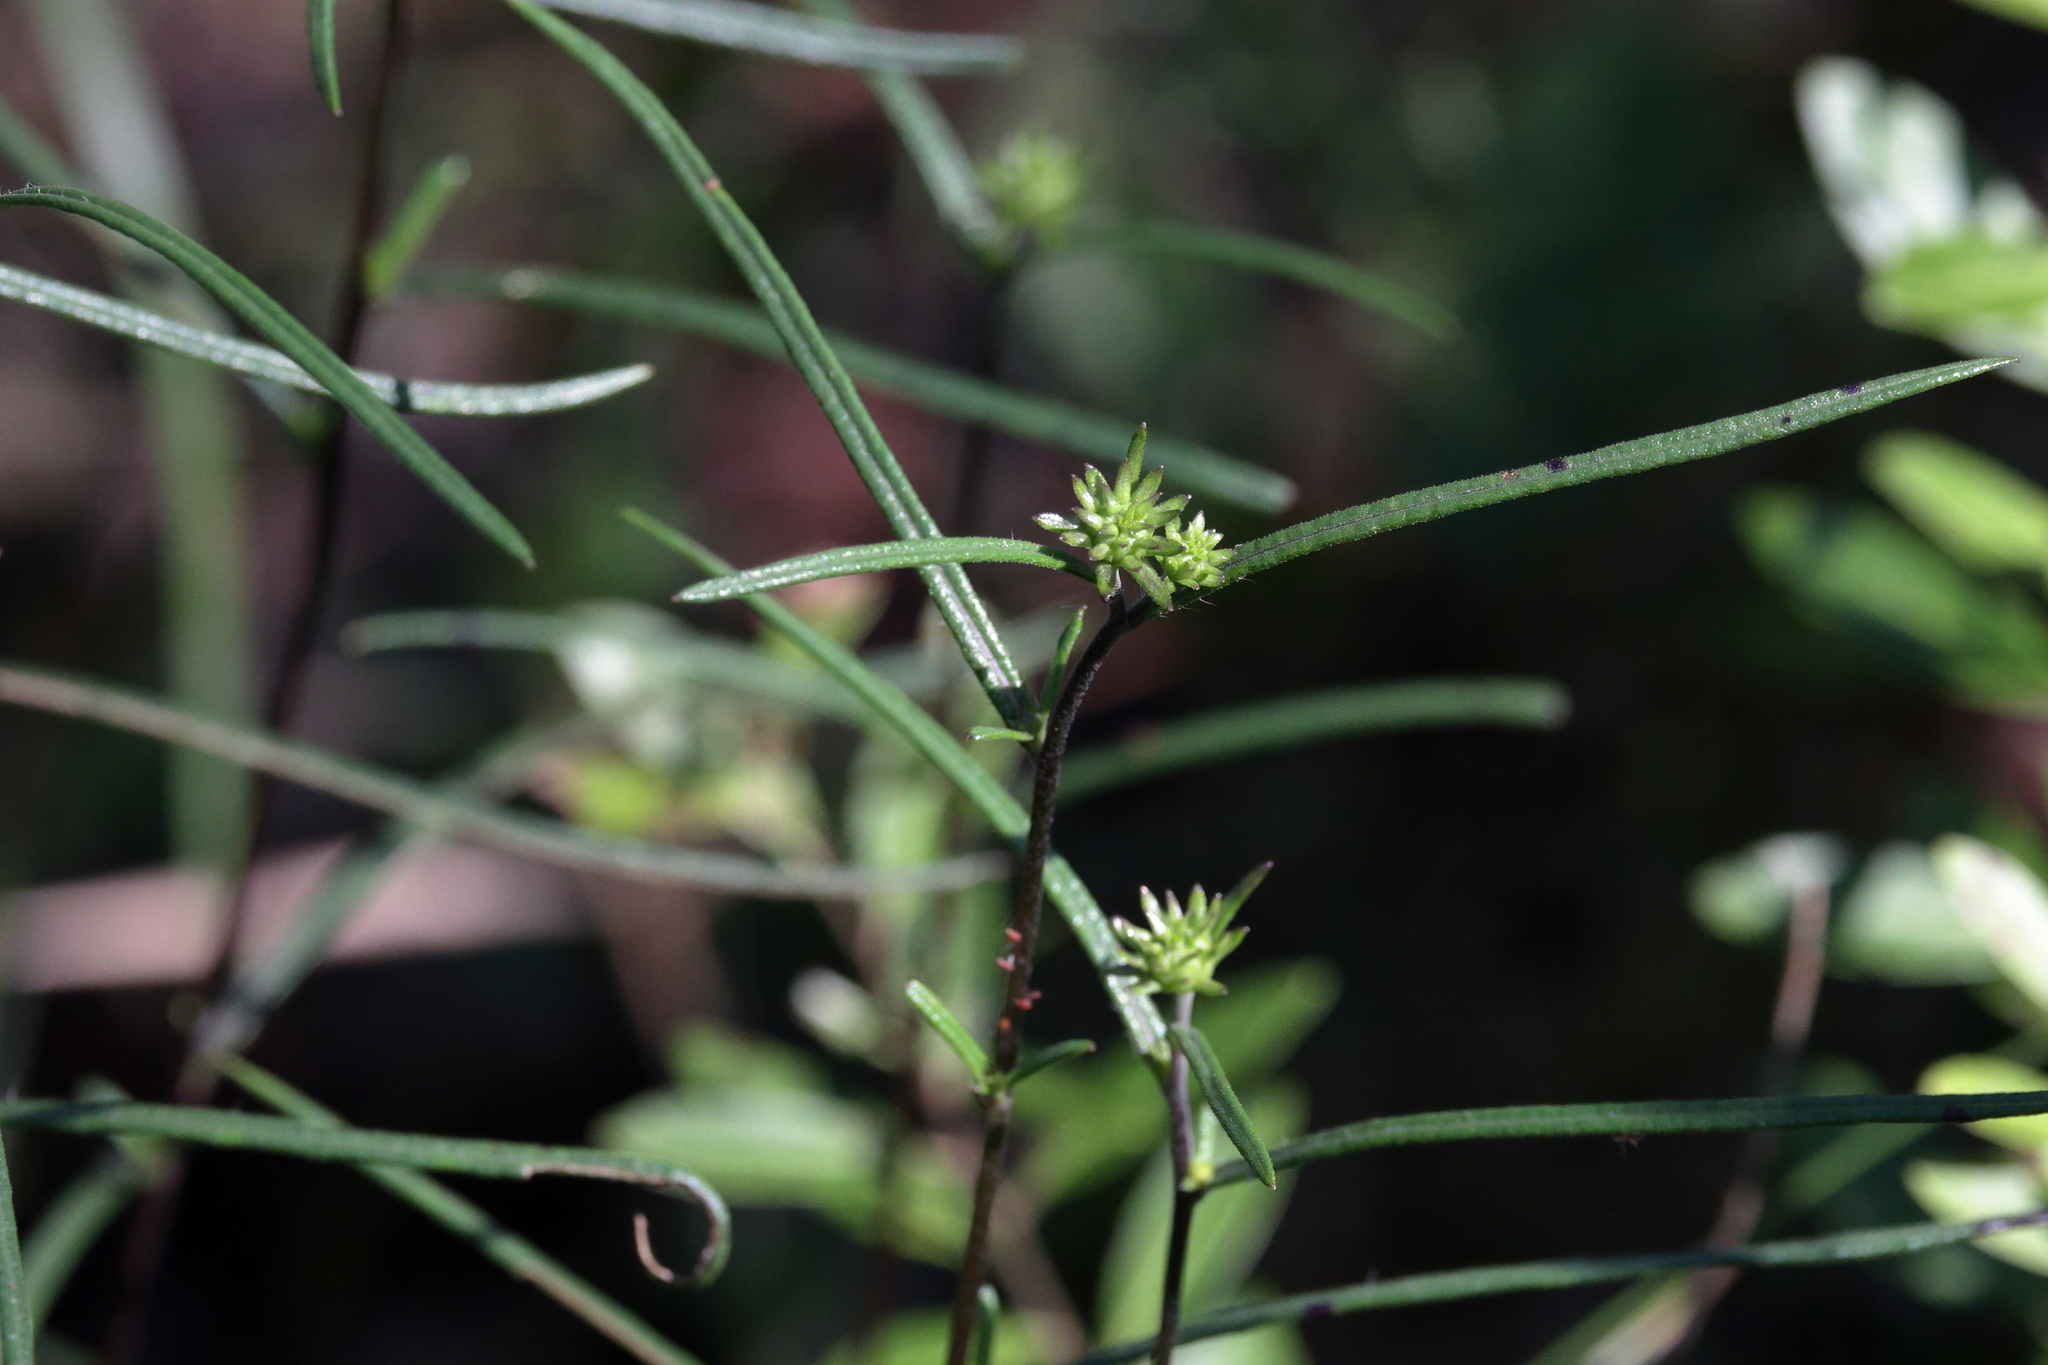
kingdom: Plantae
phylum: Tracheophyta
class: Magnoliopsida
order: Asterales
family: Asteraceae
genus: Helianthus
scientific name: Helianthus angustifolius
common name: Swamp sunflower
